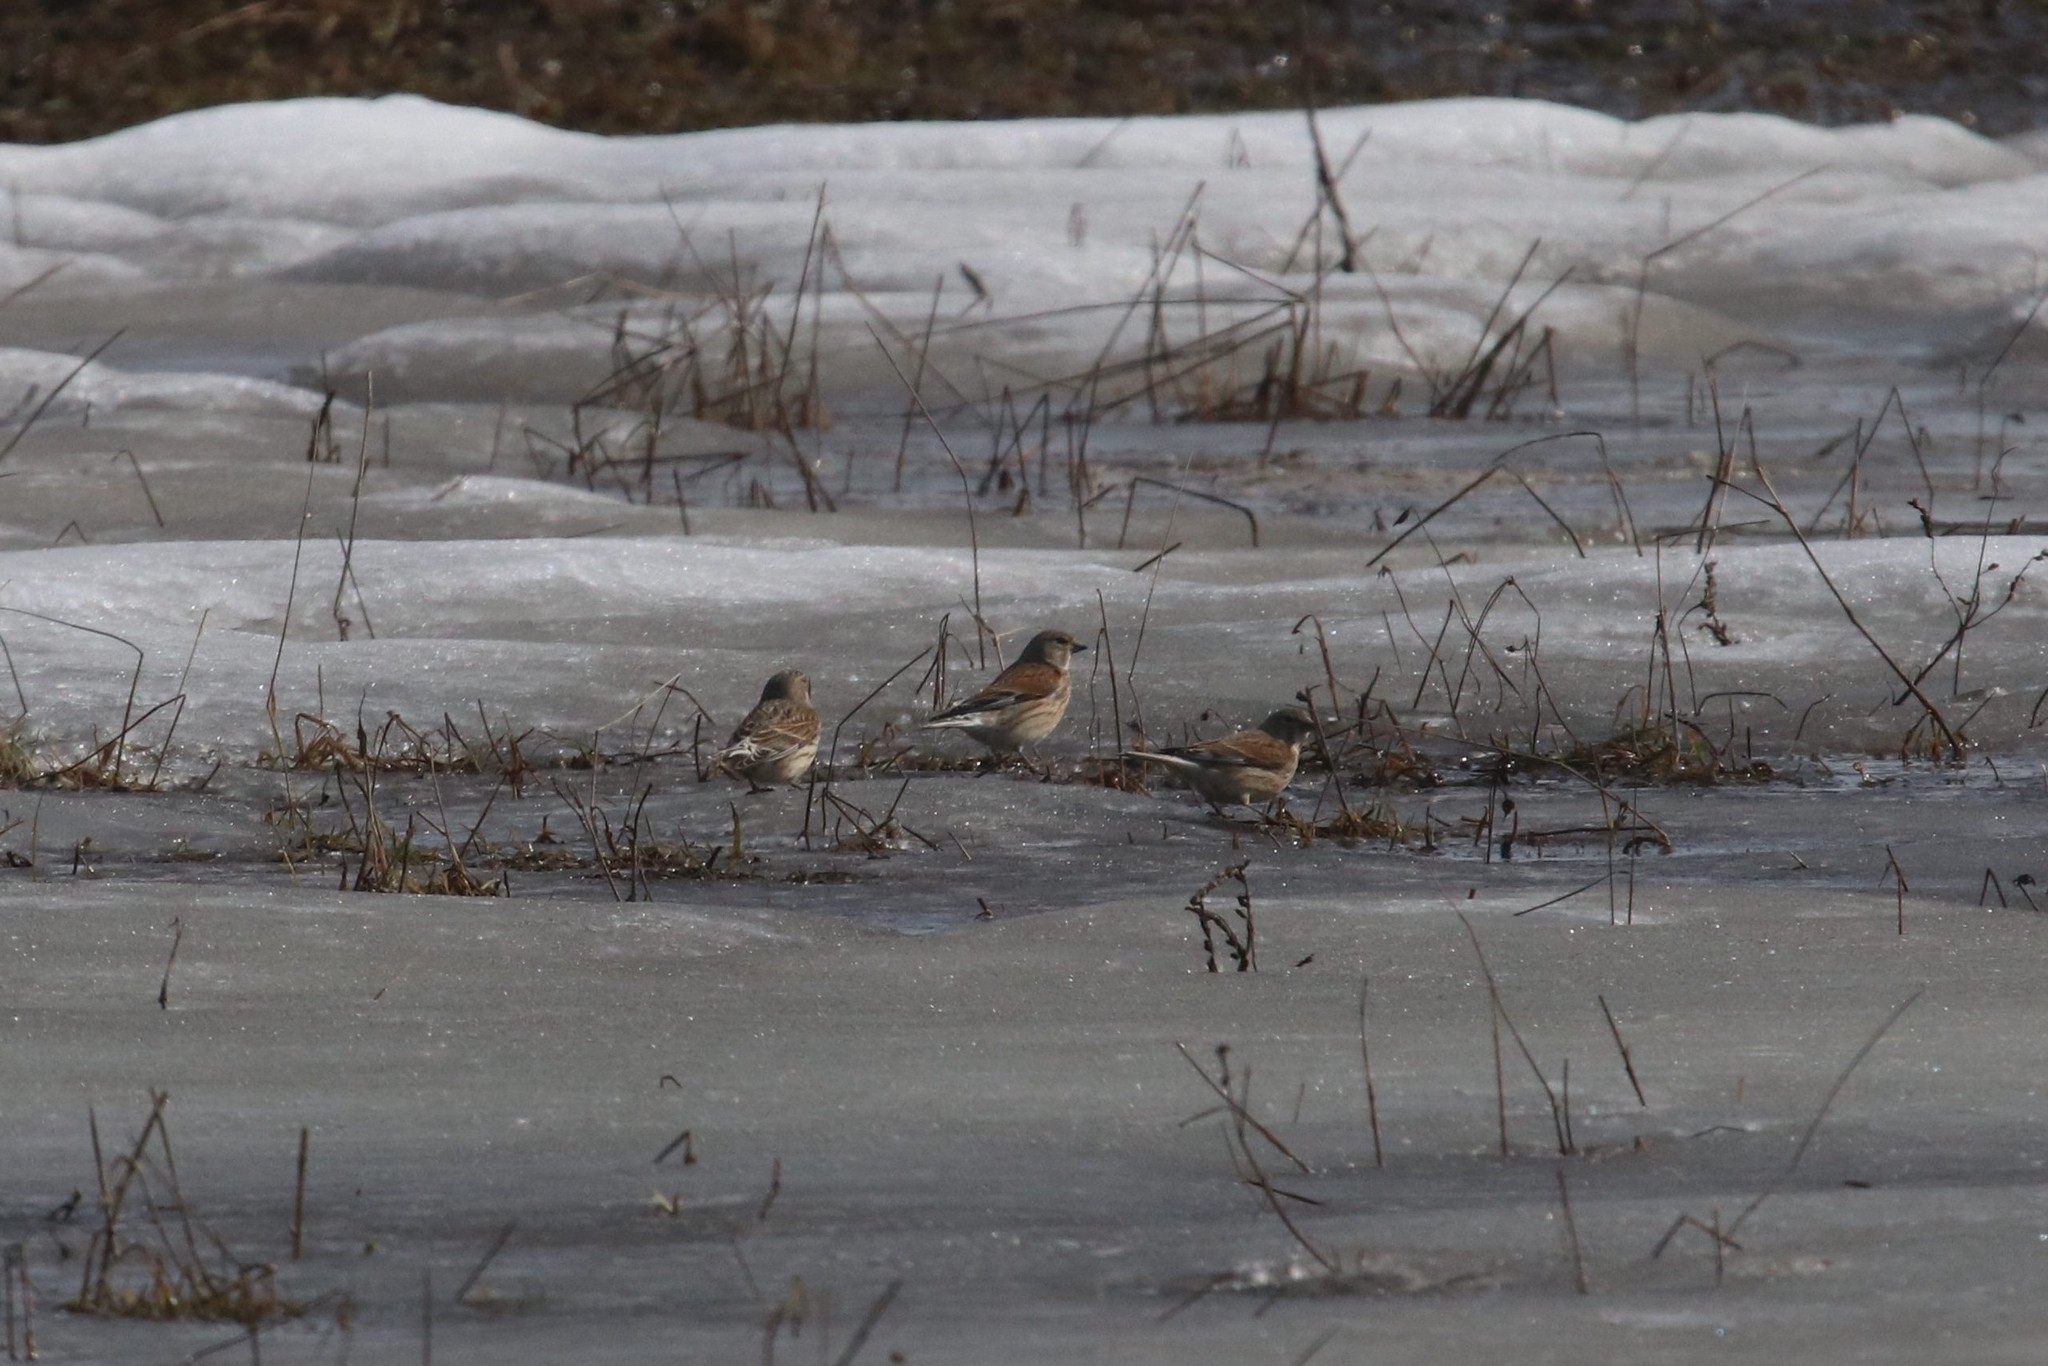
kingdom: Animalia
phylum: Chordata
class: Aves
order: Passeriformes
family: Fringillidae
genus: Linaria
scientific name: Linaria cannabina
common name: Common linnet
